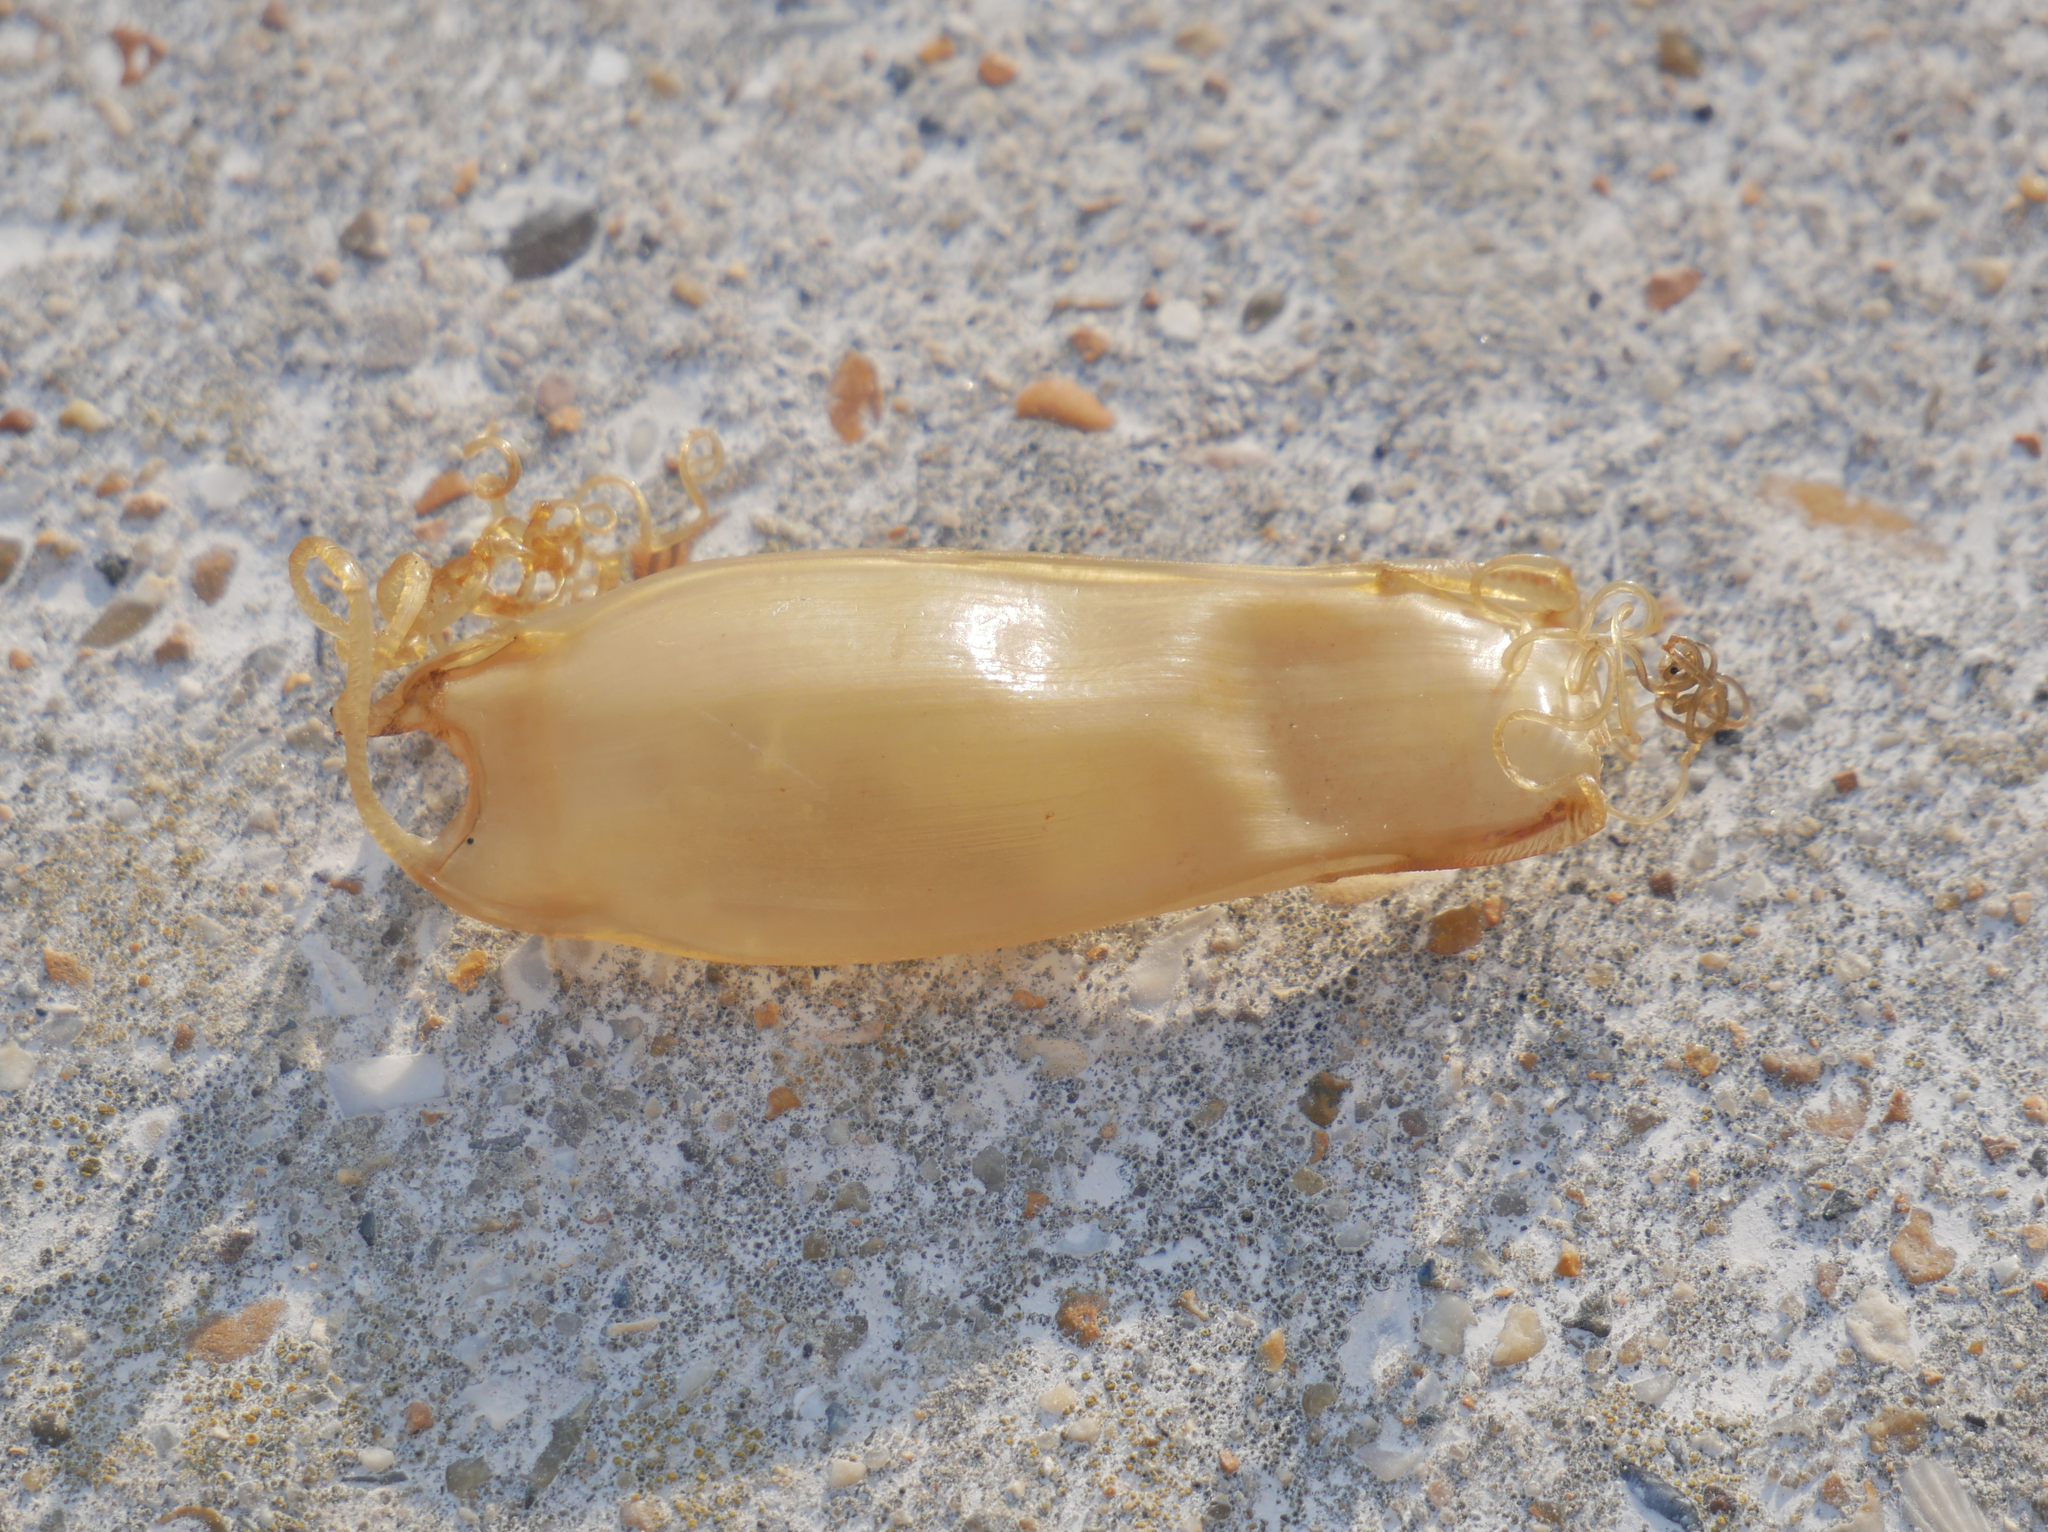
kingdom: Animalia
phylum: Chordata
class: Elasmobranchii
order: Carcharhiniformes
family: Scyliorhinidae
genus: Scyliorhinus
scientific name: Scyliorhinus canicula
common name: Lesser spotted dogfish
